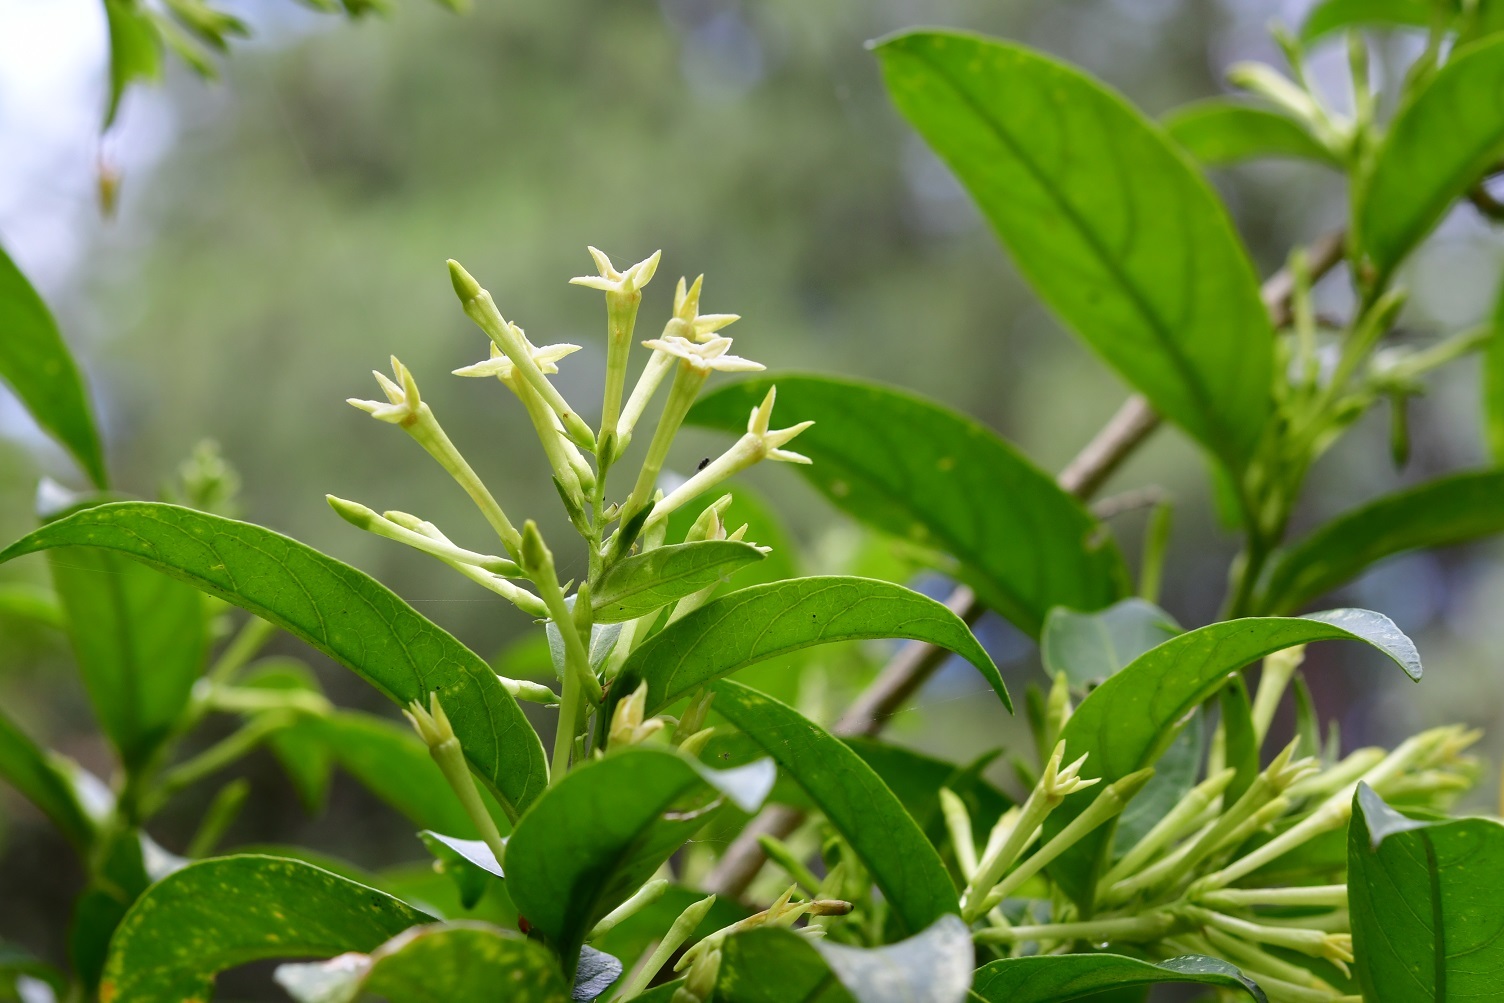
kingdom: Plantae
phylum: Tracheophyta
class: Magnoliopsida
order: Solanales
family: Solanaceae
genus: Cestrum
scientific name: Cestrum nocturnum
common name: Night jessamine
